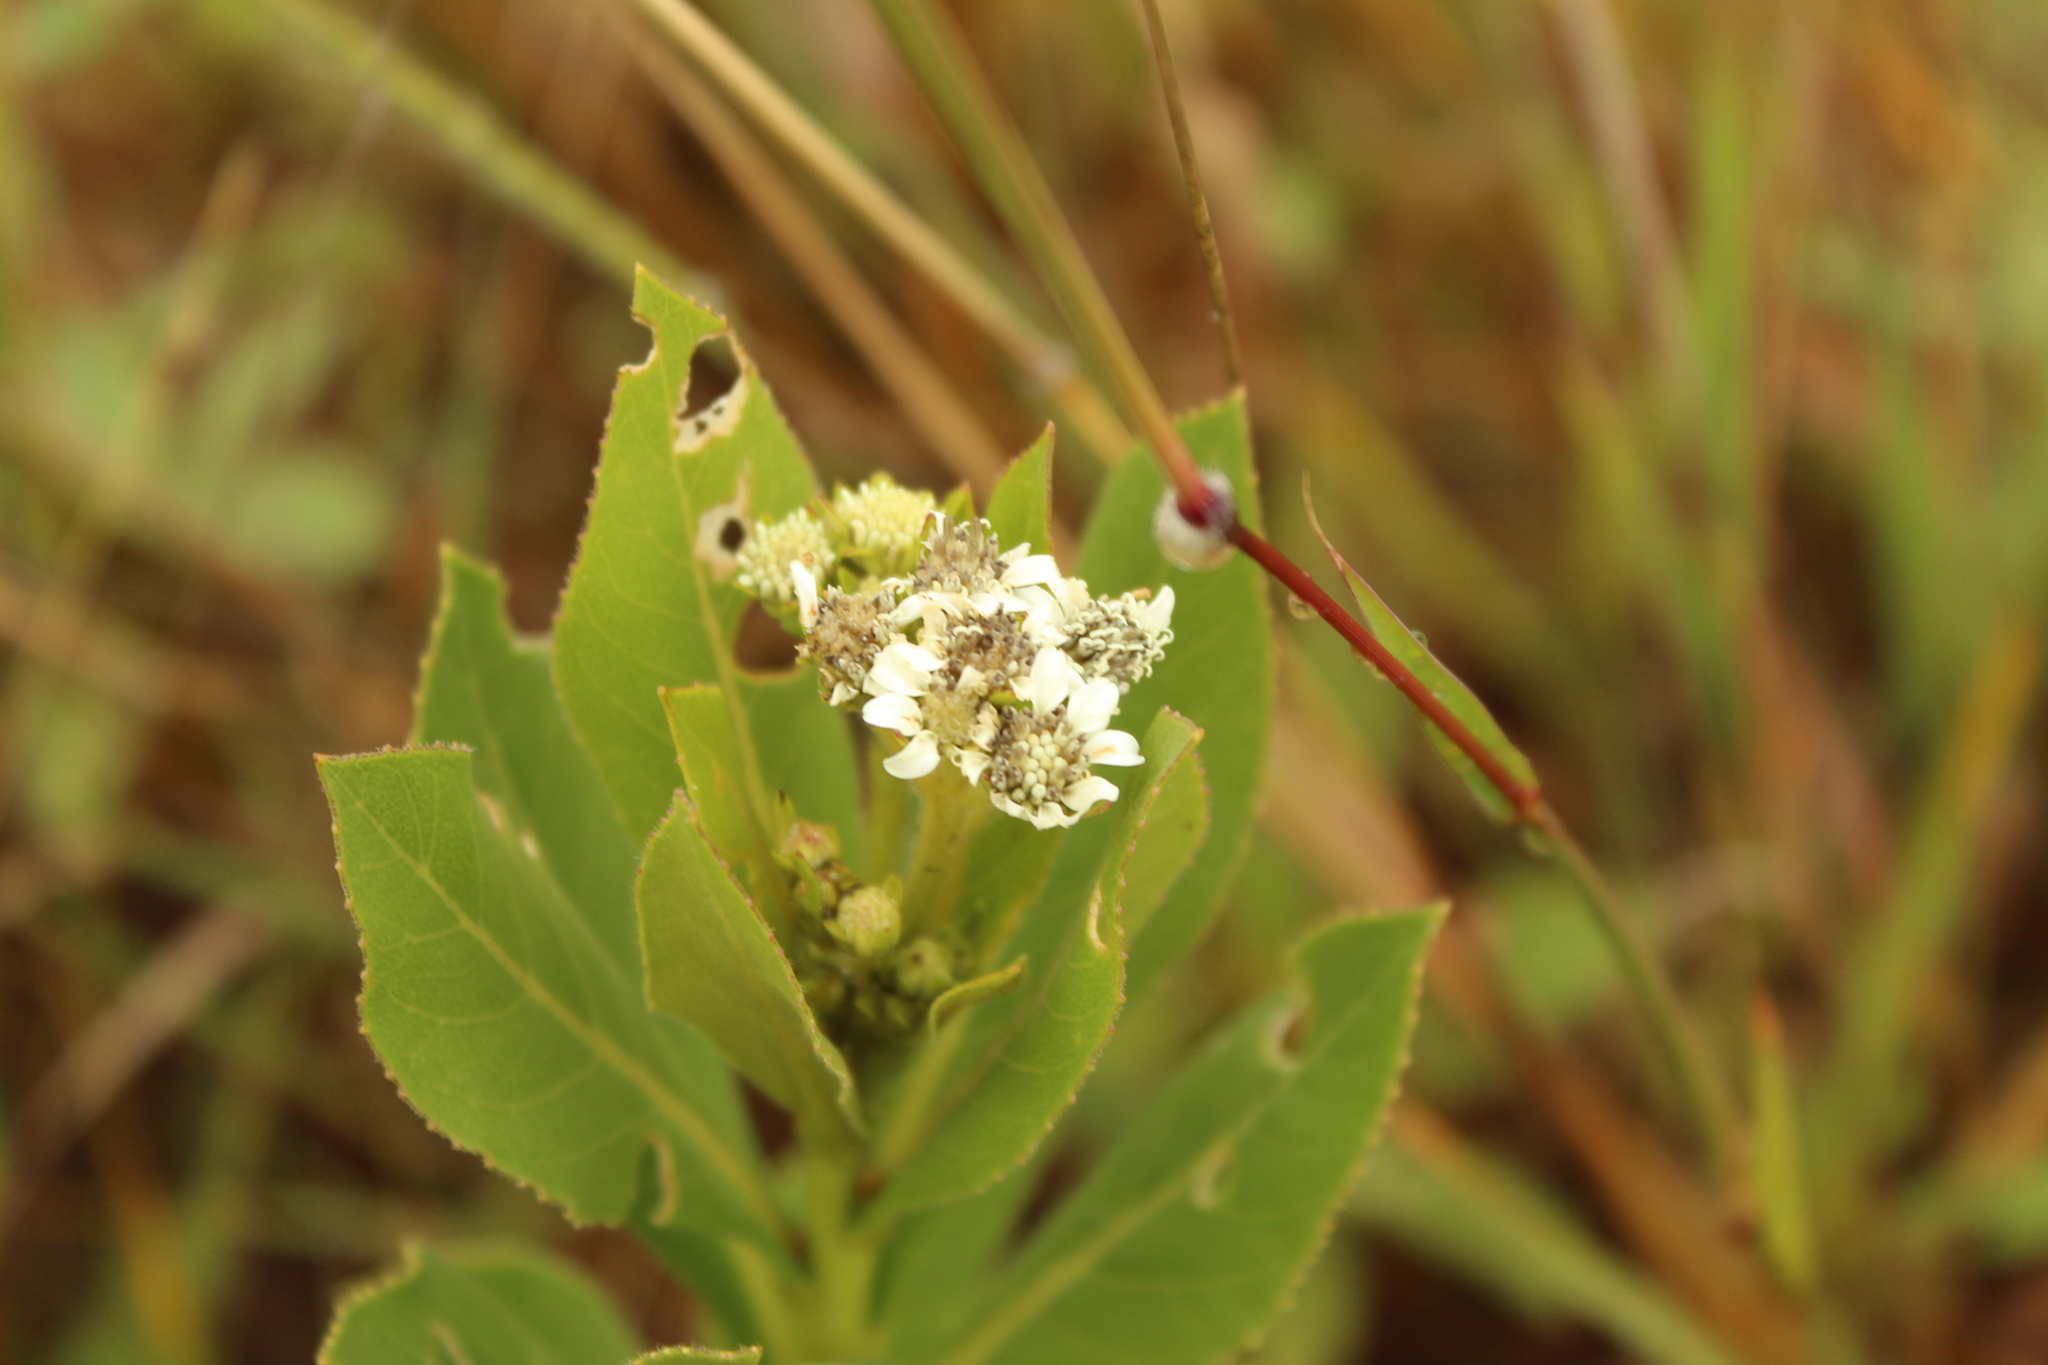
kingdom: Plantae
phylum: Tracheophyta
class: Magnoliopsida
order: Asterales
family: Asteraceae
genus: Verbesina
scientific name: Verbesina centroboyacana
